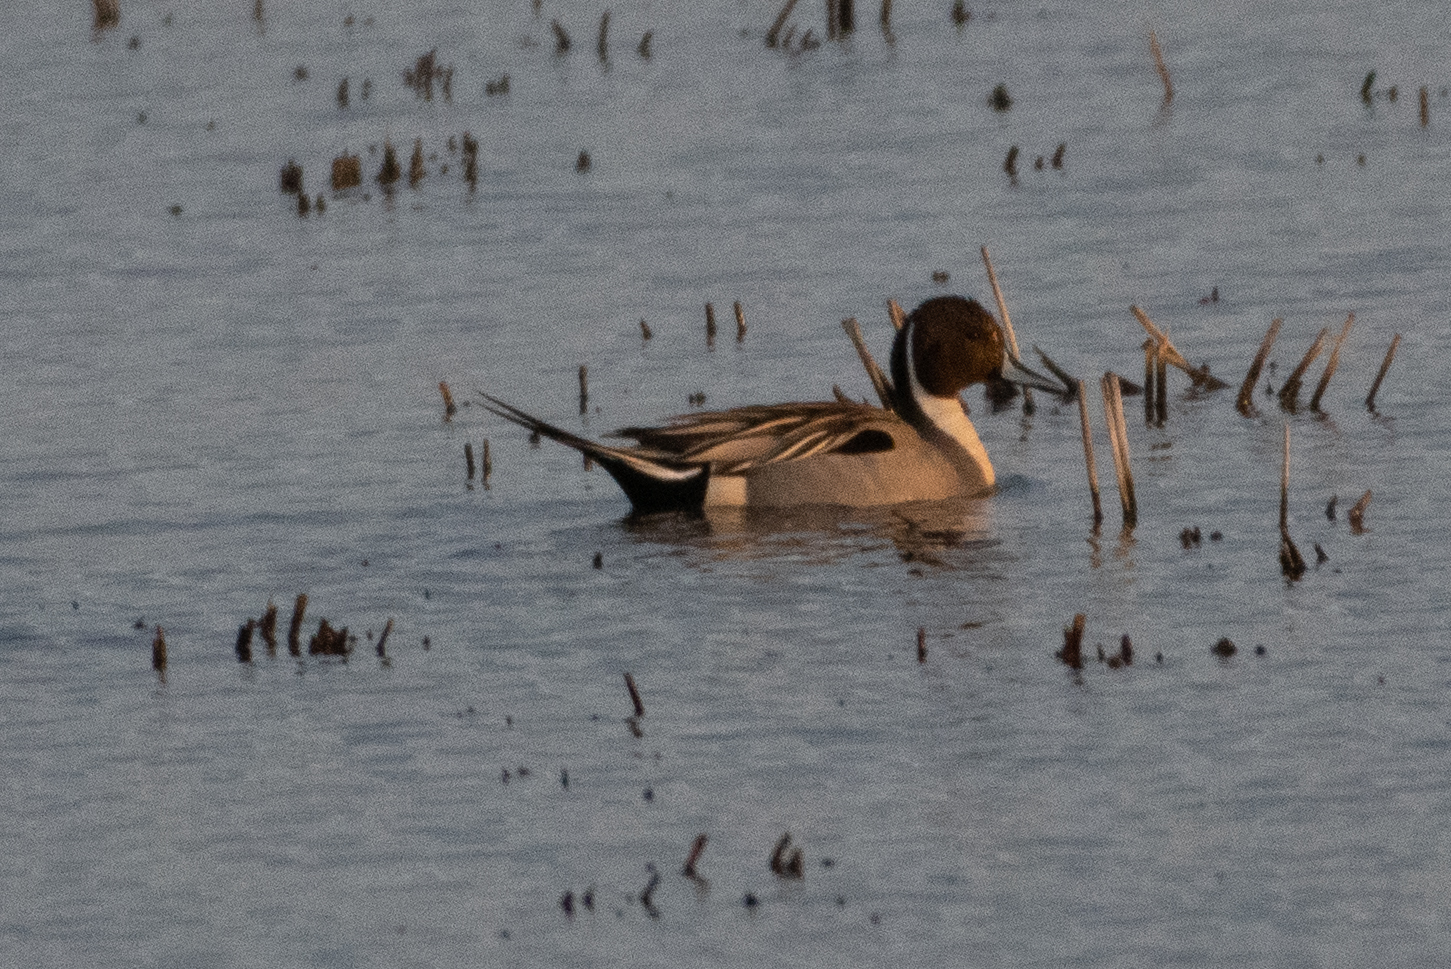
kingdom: Animalia
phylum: Chordata
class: Aves
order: Anseriformes
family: Anatidae
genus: Anas
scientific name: Anas acuta
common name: Northern pintail
